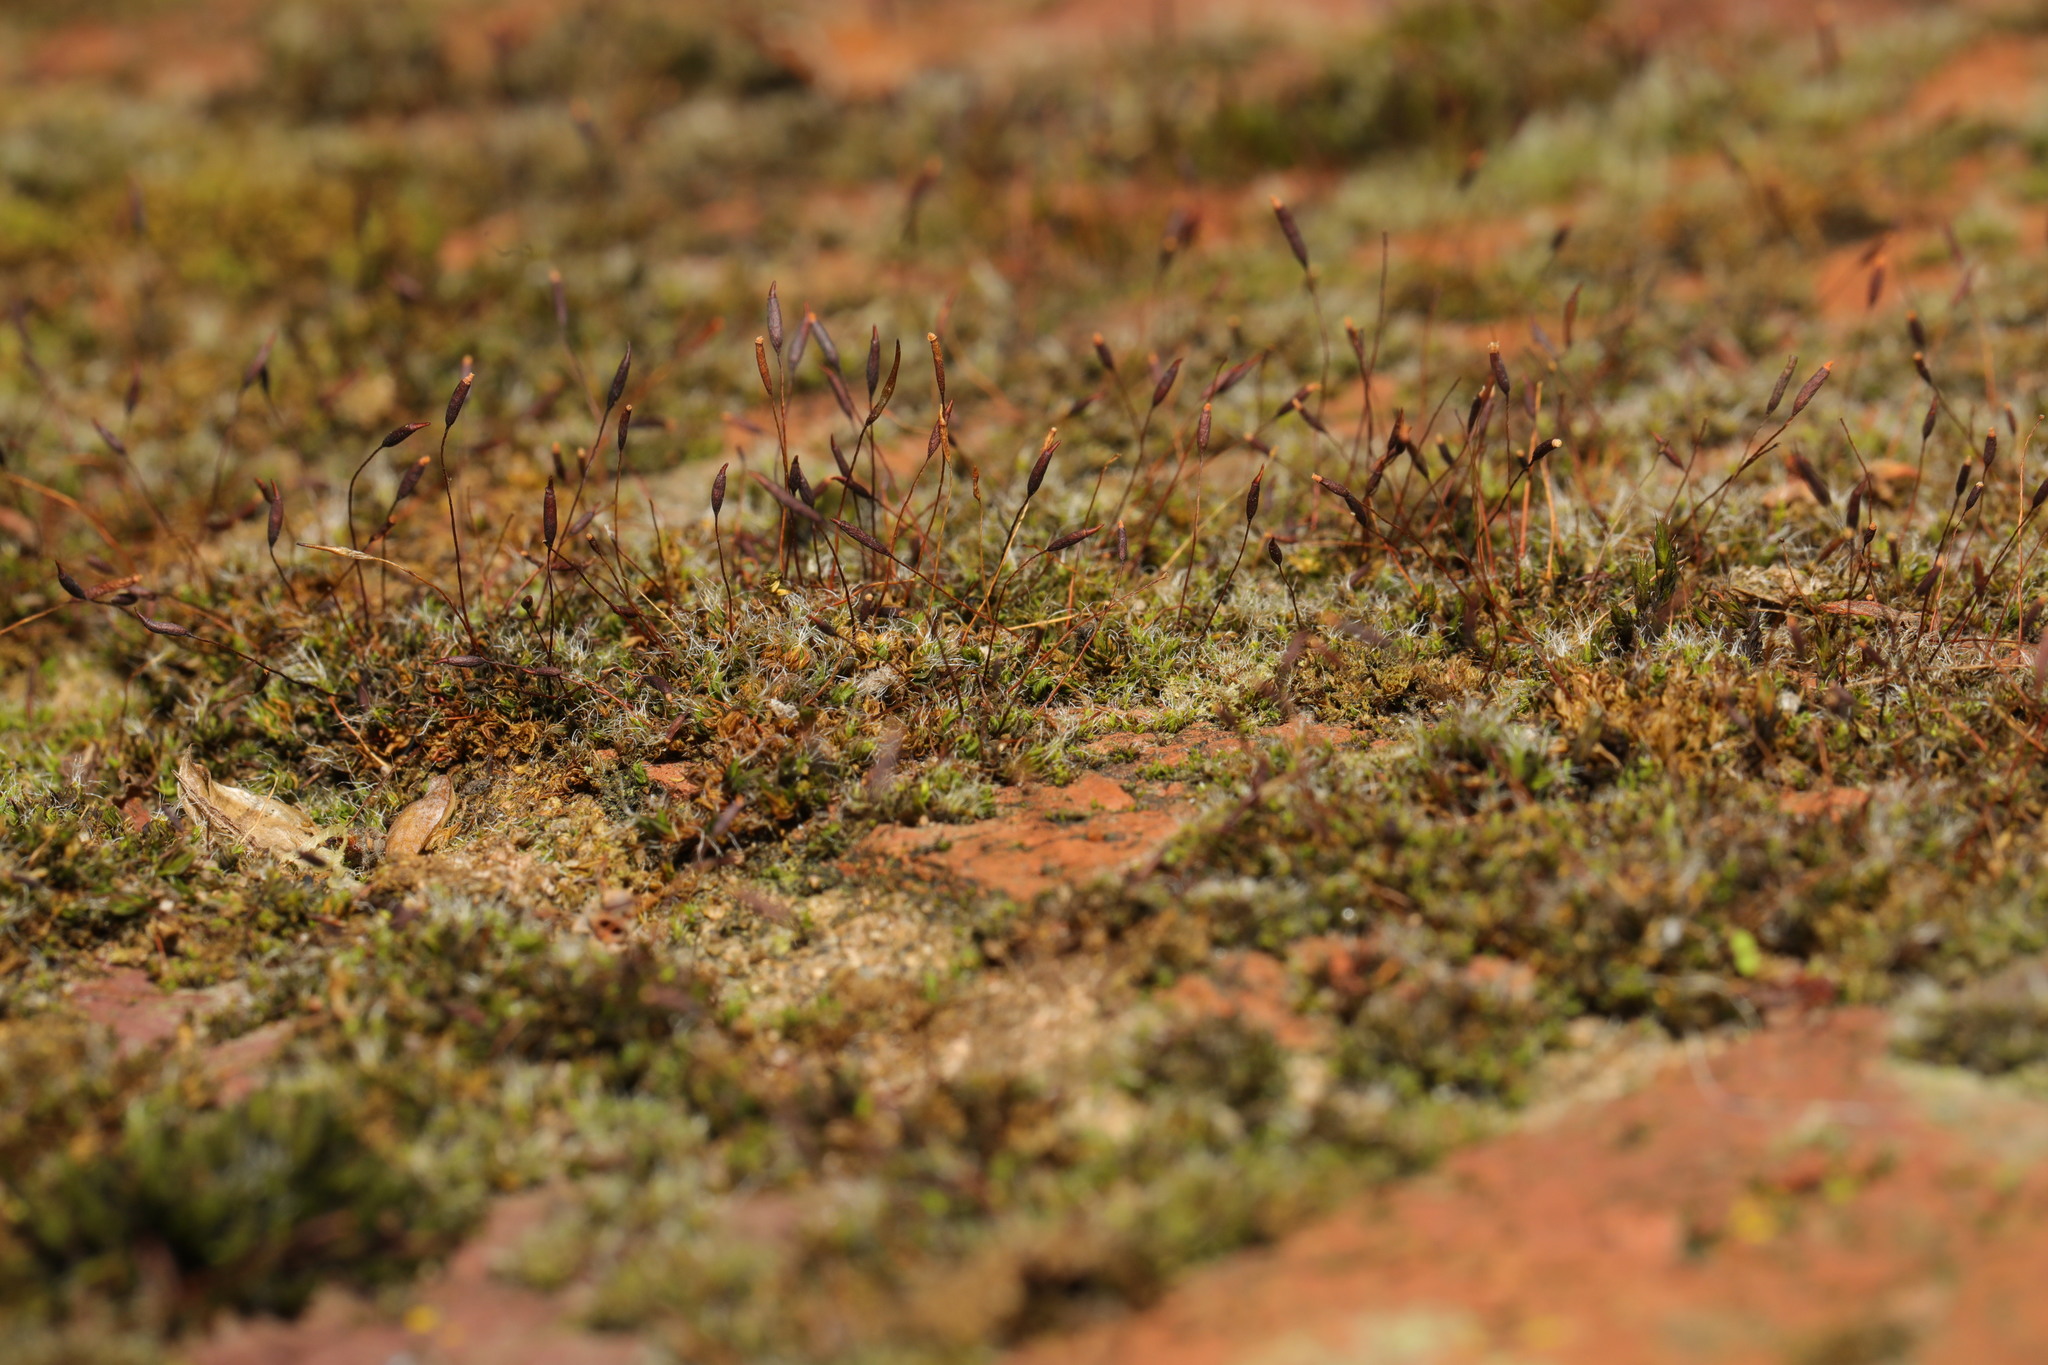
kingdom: Plantae
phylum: Bryophyta
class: Bryopsida
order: Pottiales
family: Pottiaceae
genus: Tortula
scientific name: Tortula muralis
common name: Wall screw-moss
